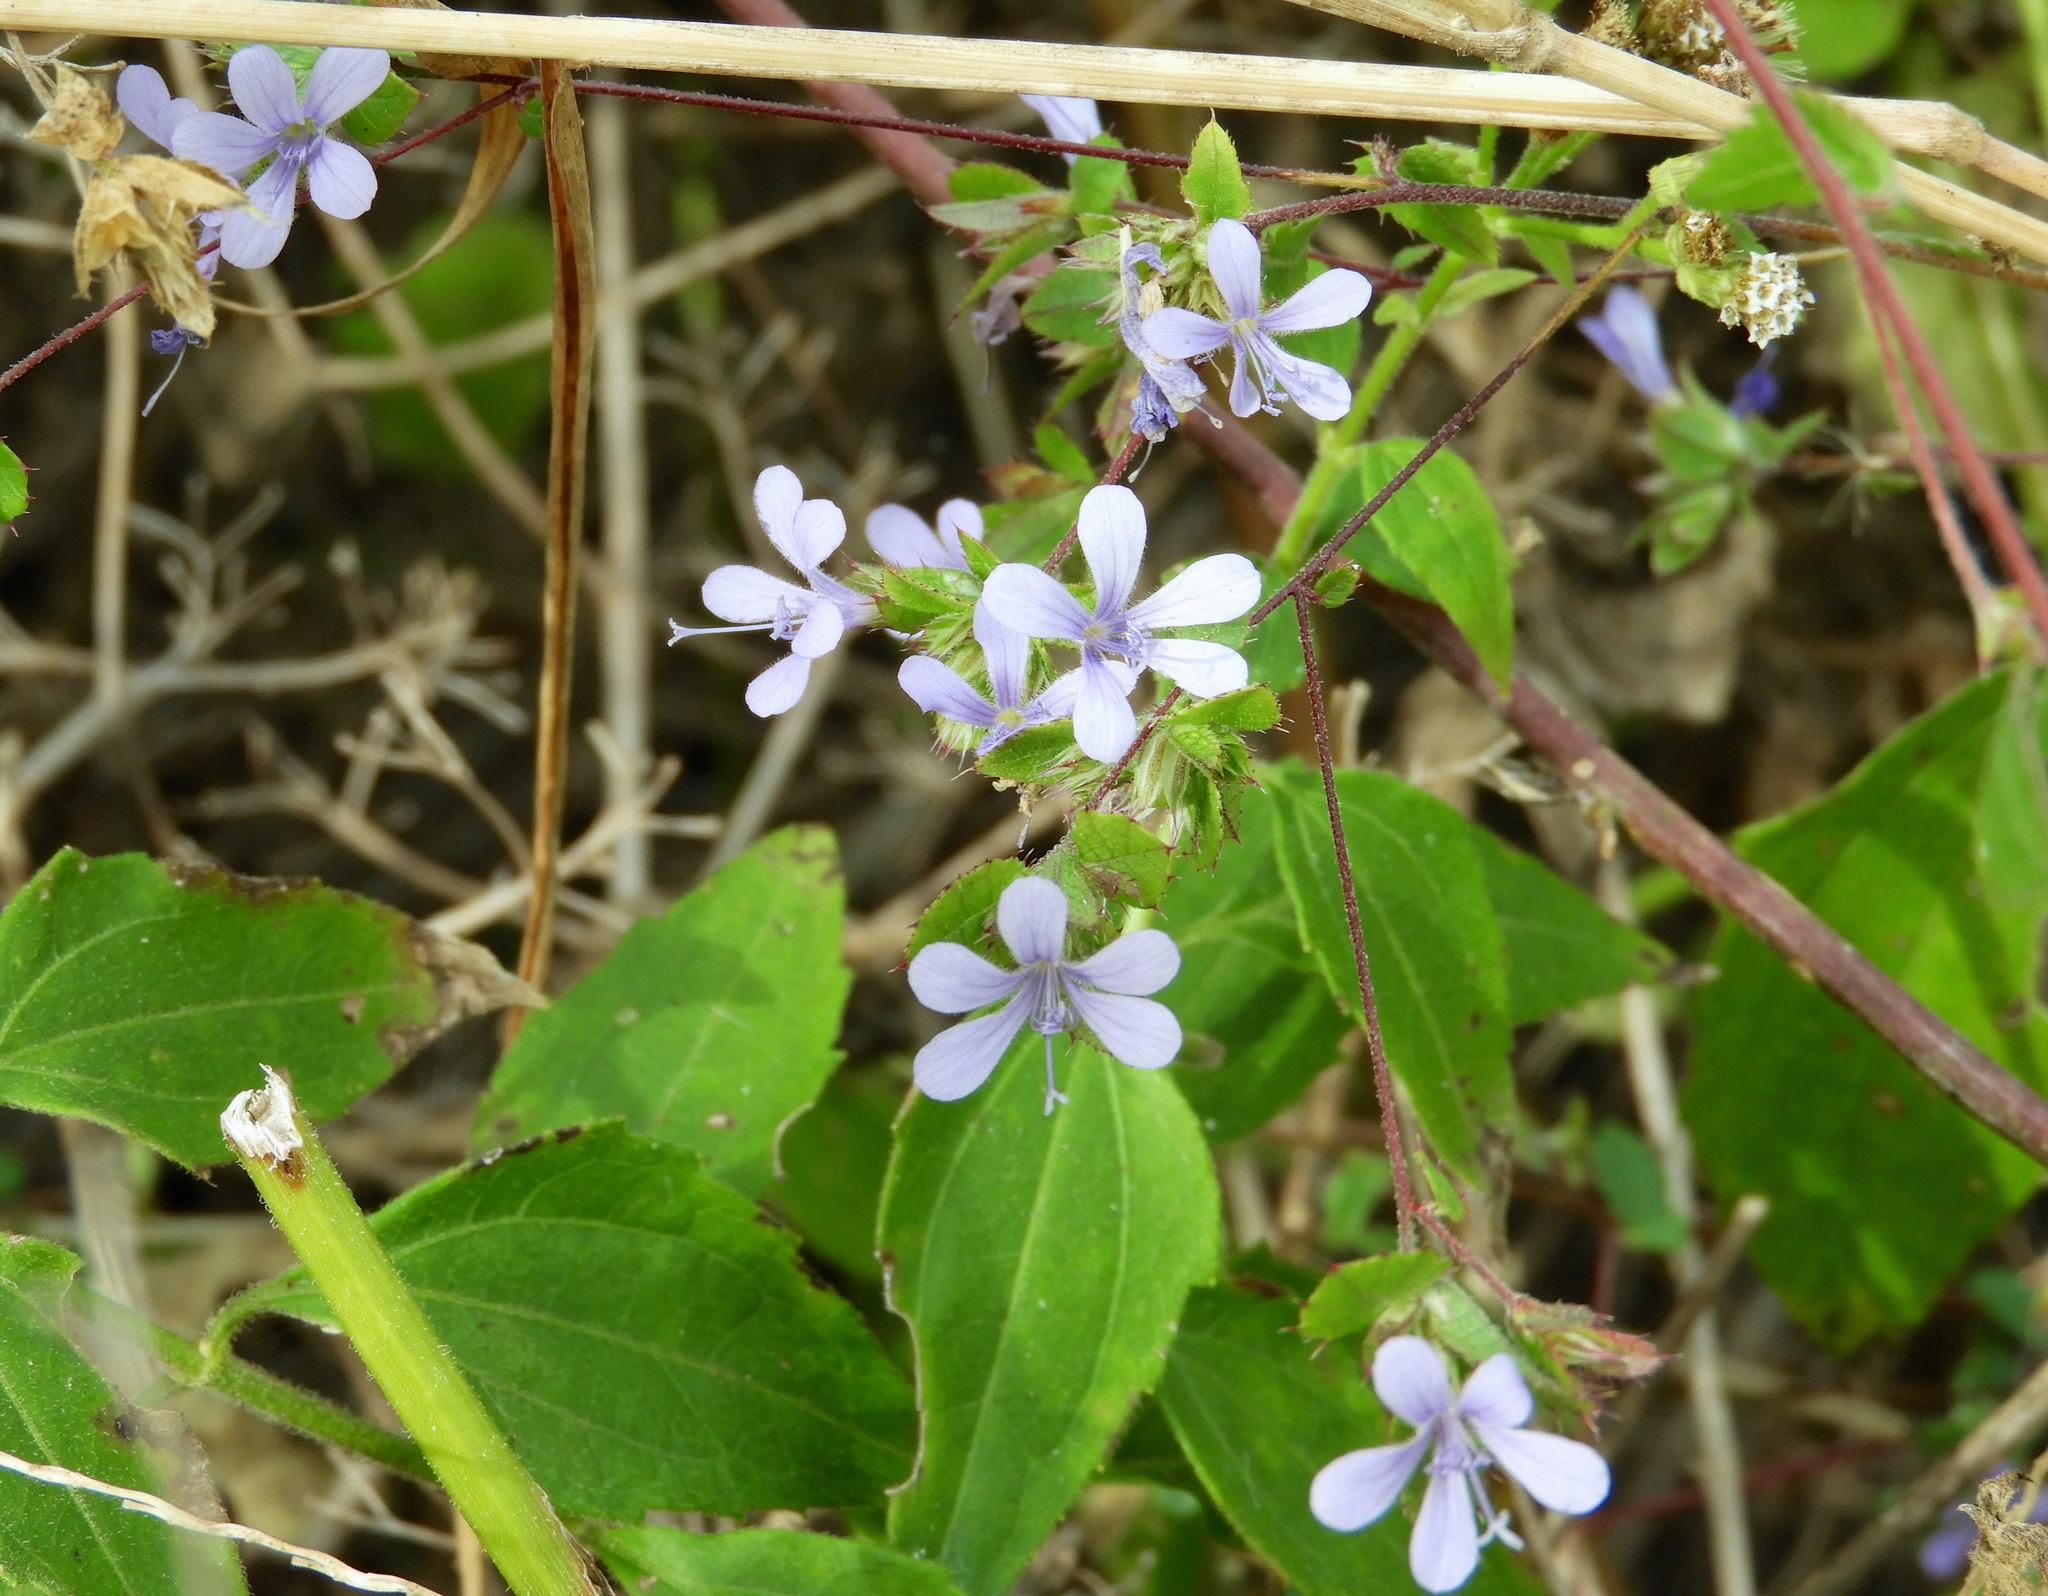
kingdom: Plantae
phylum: Tracheophyta
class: Magnoliopsida
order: Ericales
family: Polemoniaceae
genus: Loeselia
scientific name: Loeselia ciliata
